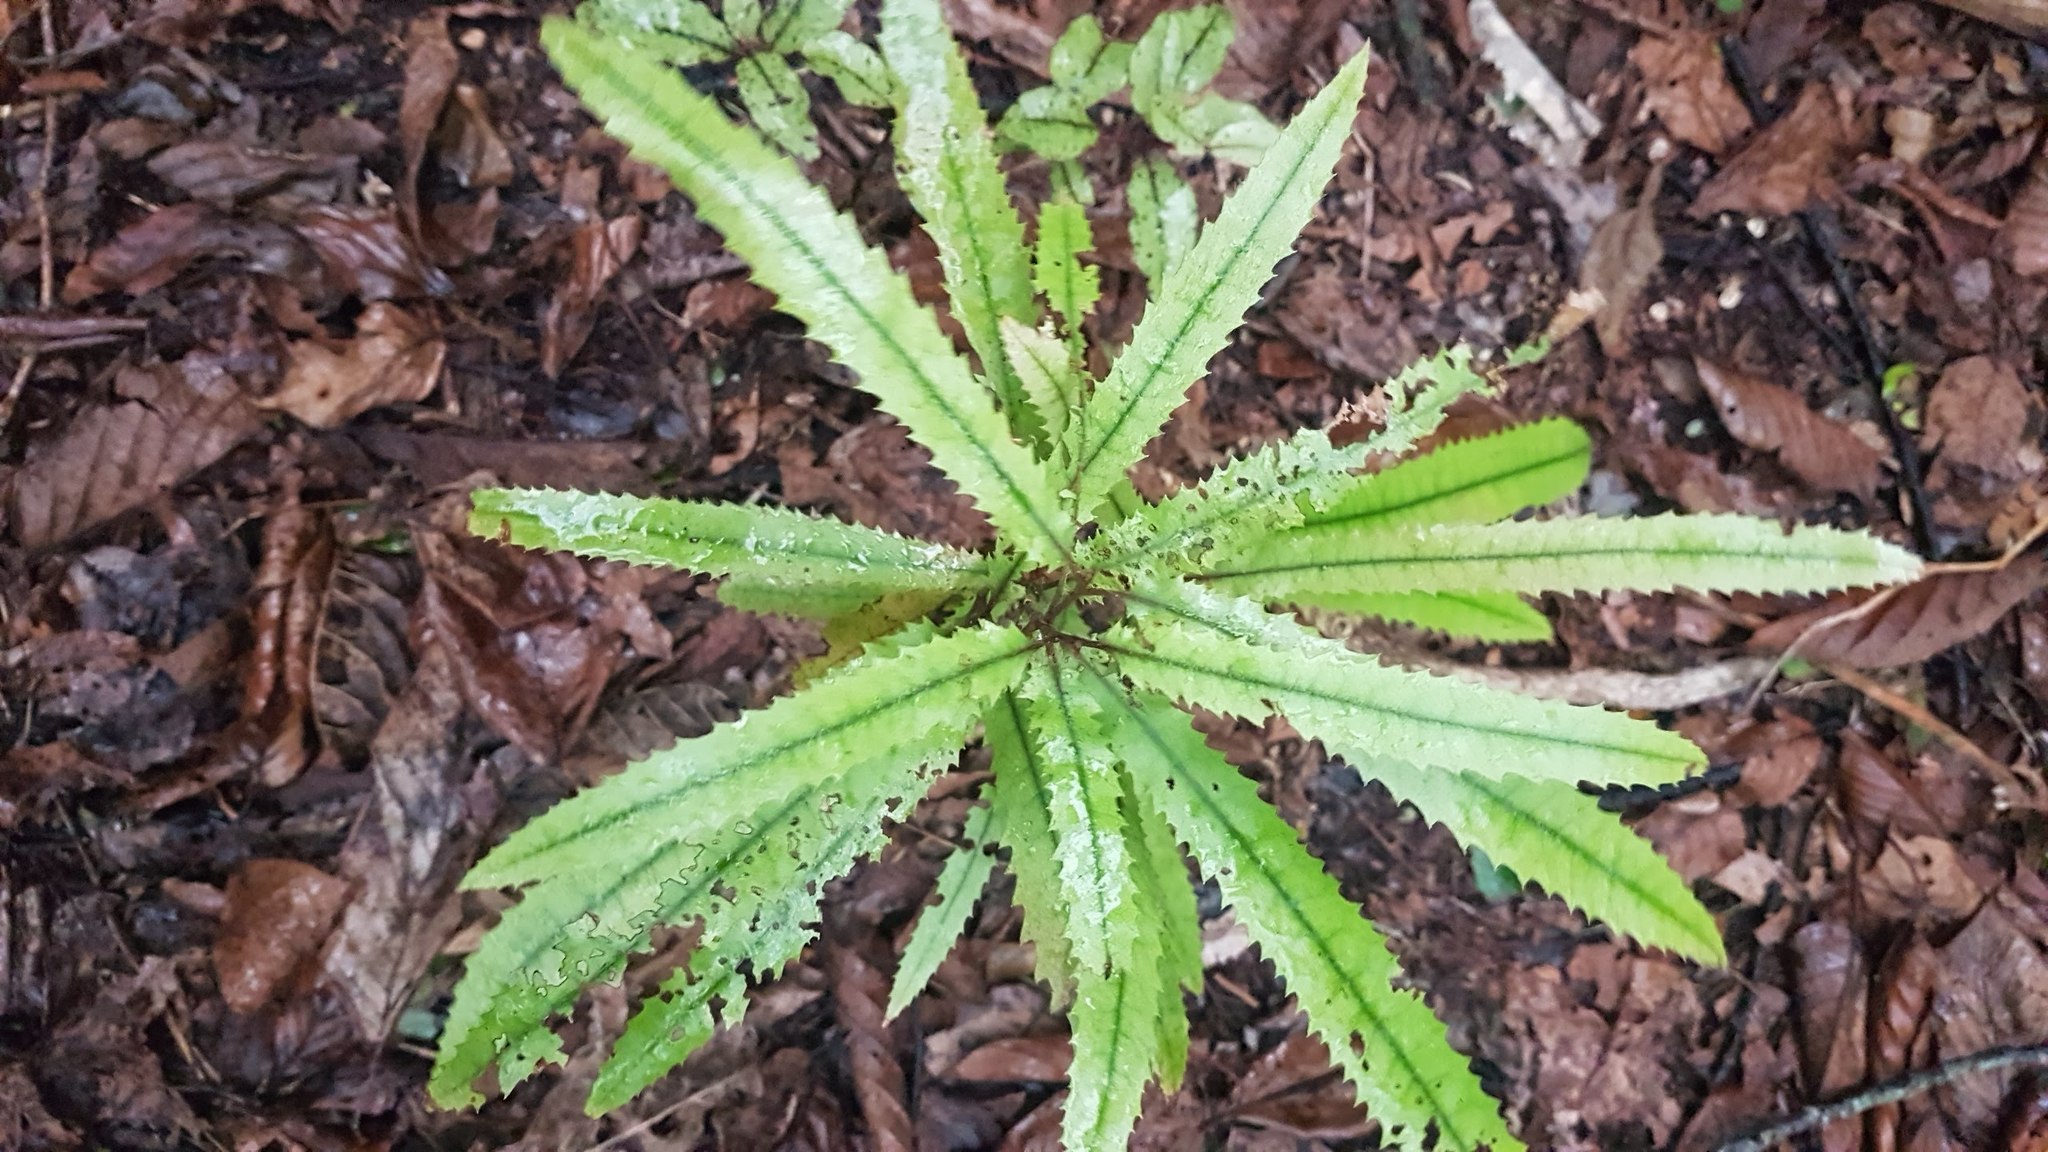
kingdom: Plantae
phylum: Tracheophyta
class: Magnoliopsida
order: Proteales
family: Proteaceae
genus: Knightia
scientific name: Knightia excelsa
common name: New zealand-honeysuckle
